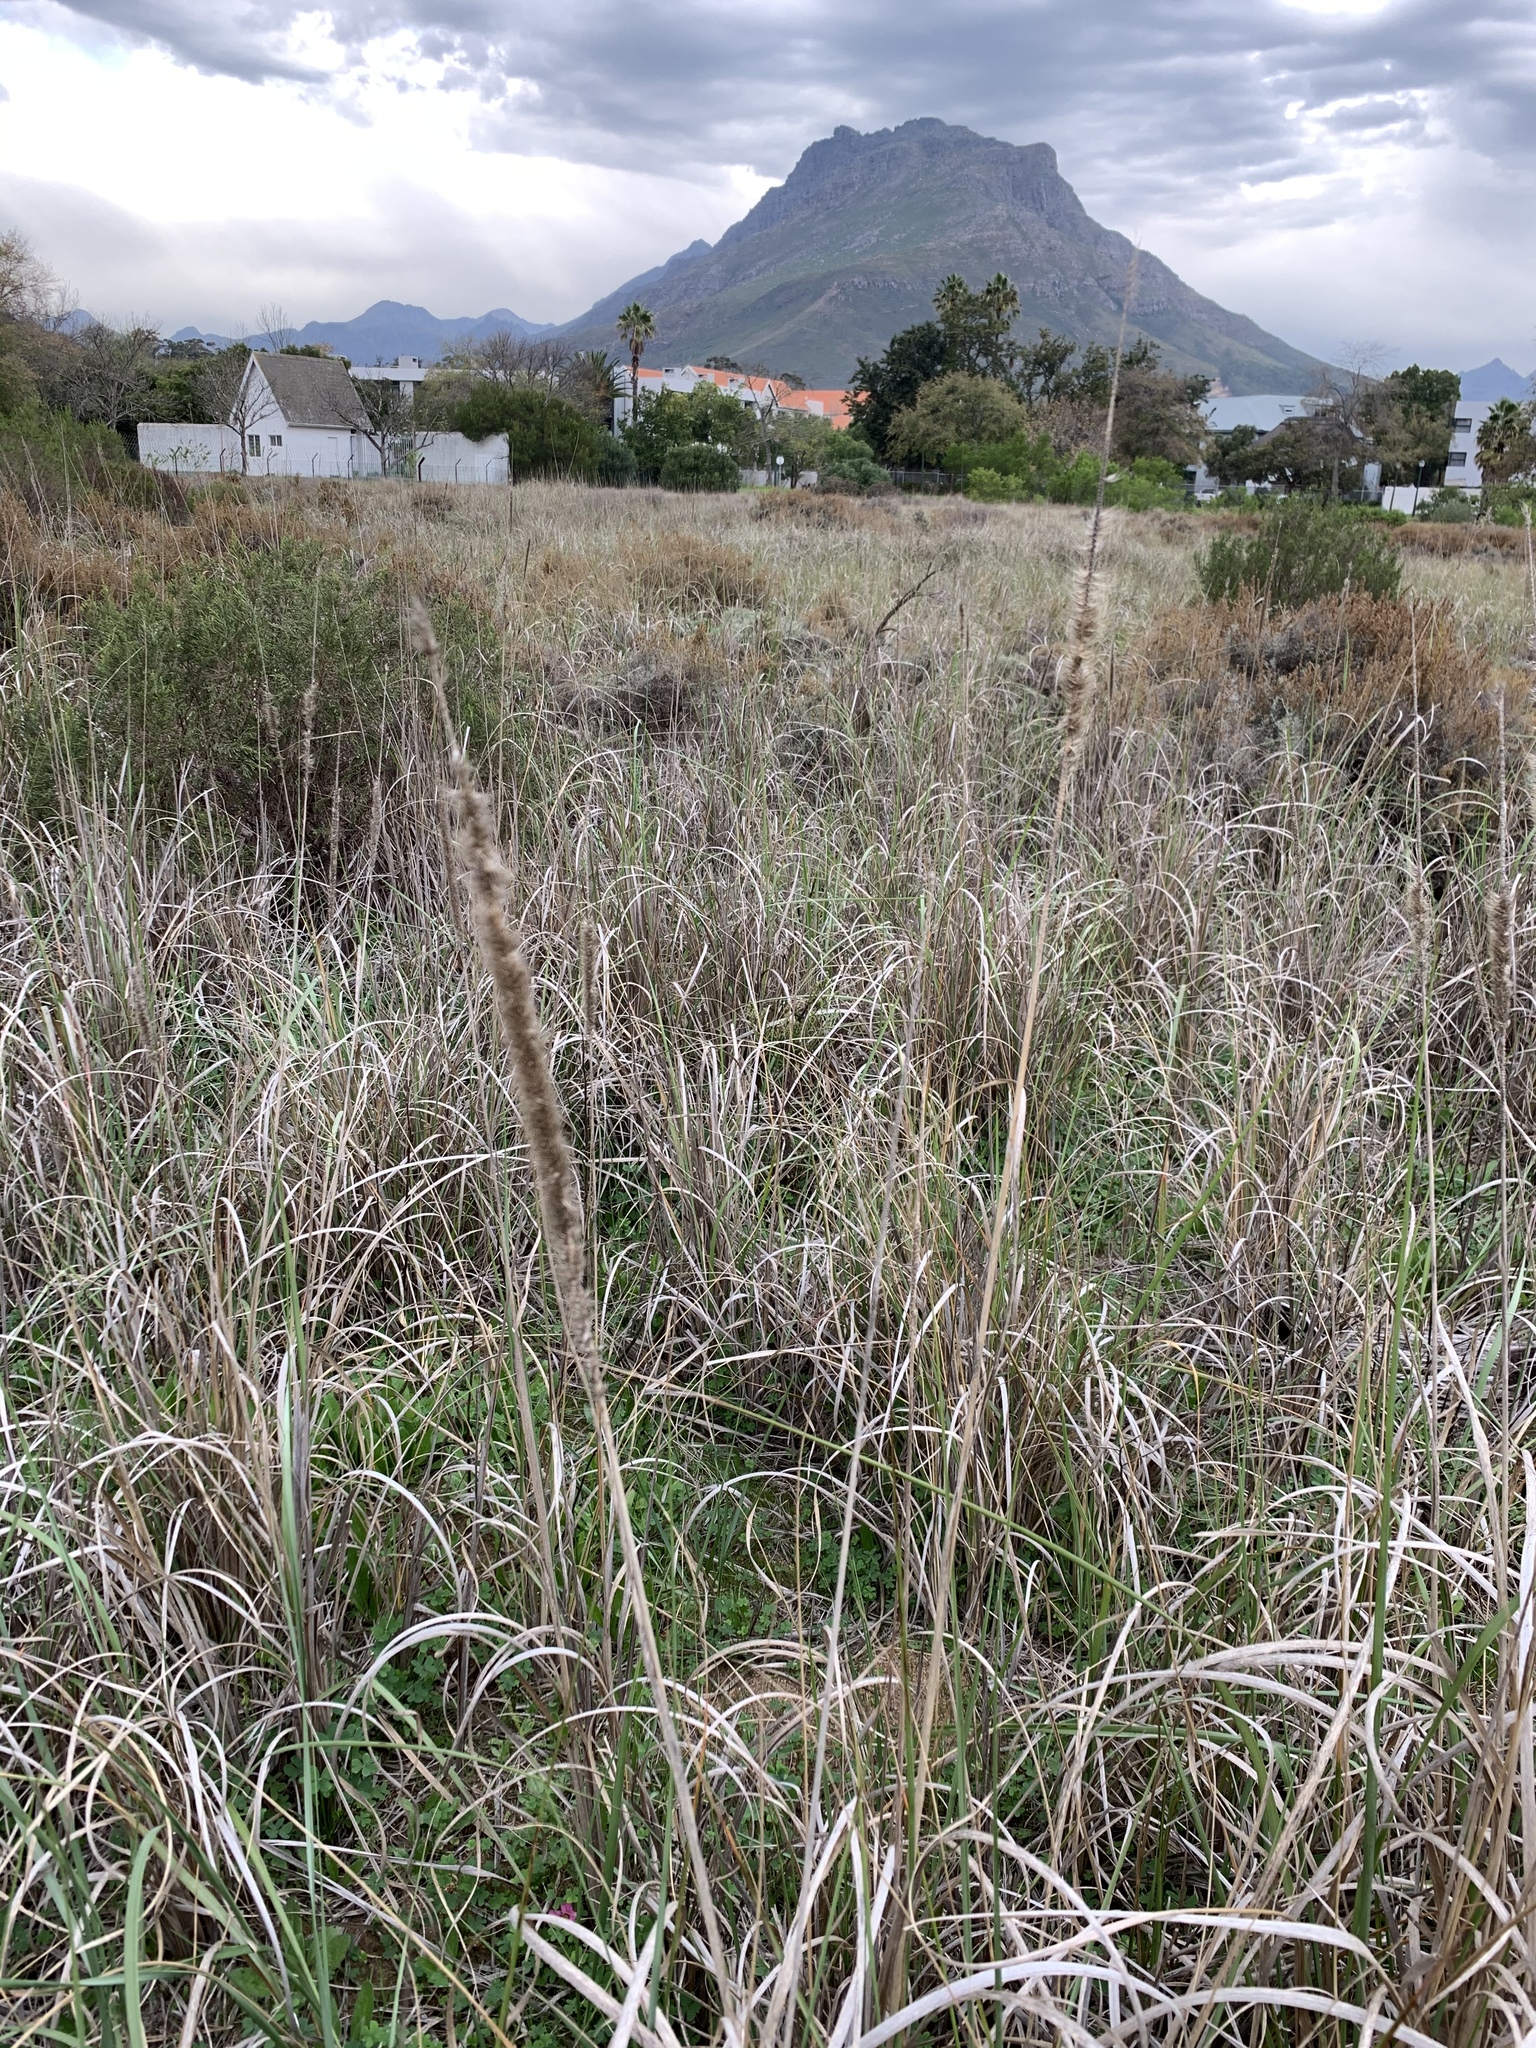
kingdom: Plantae
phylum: Tracheophyta
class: Liliopsida
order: Poales
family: Poaceae
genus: Cenchrus
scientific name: Cenchrus caudatus
